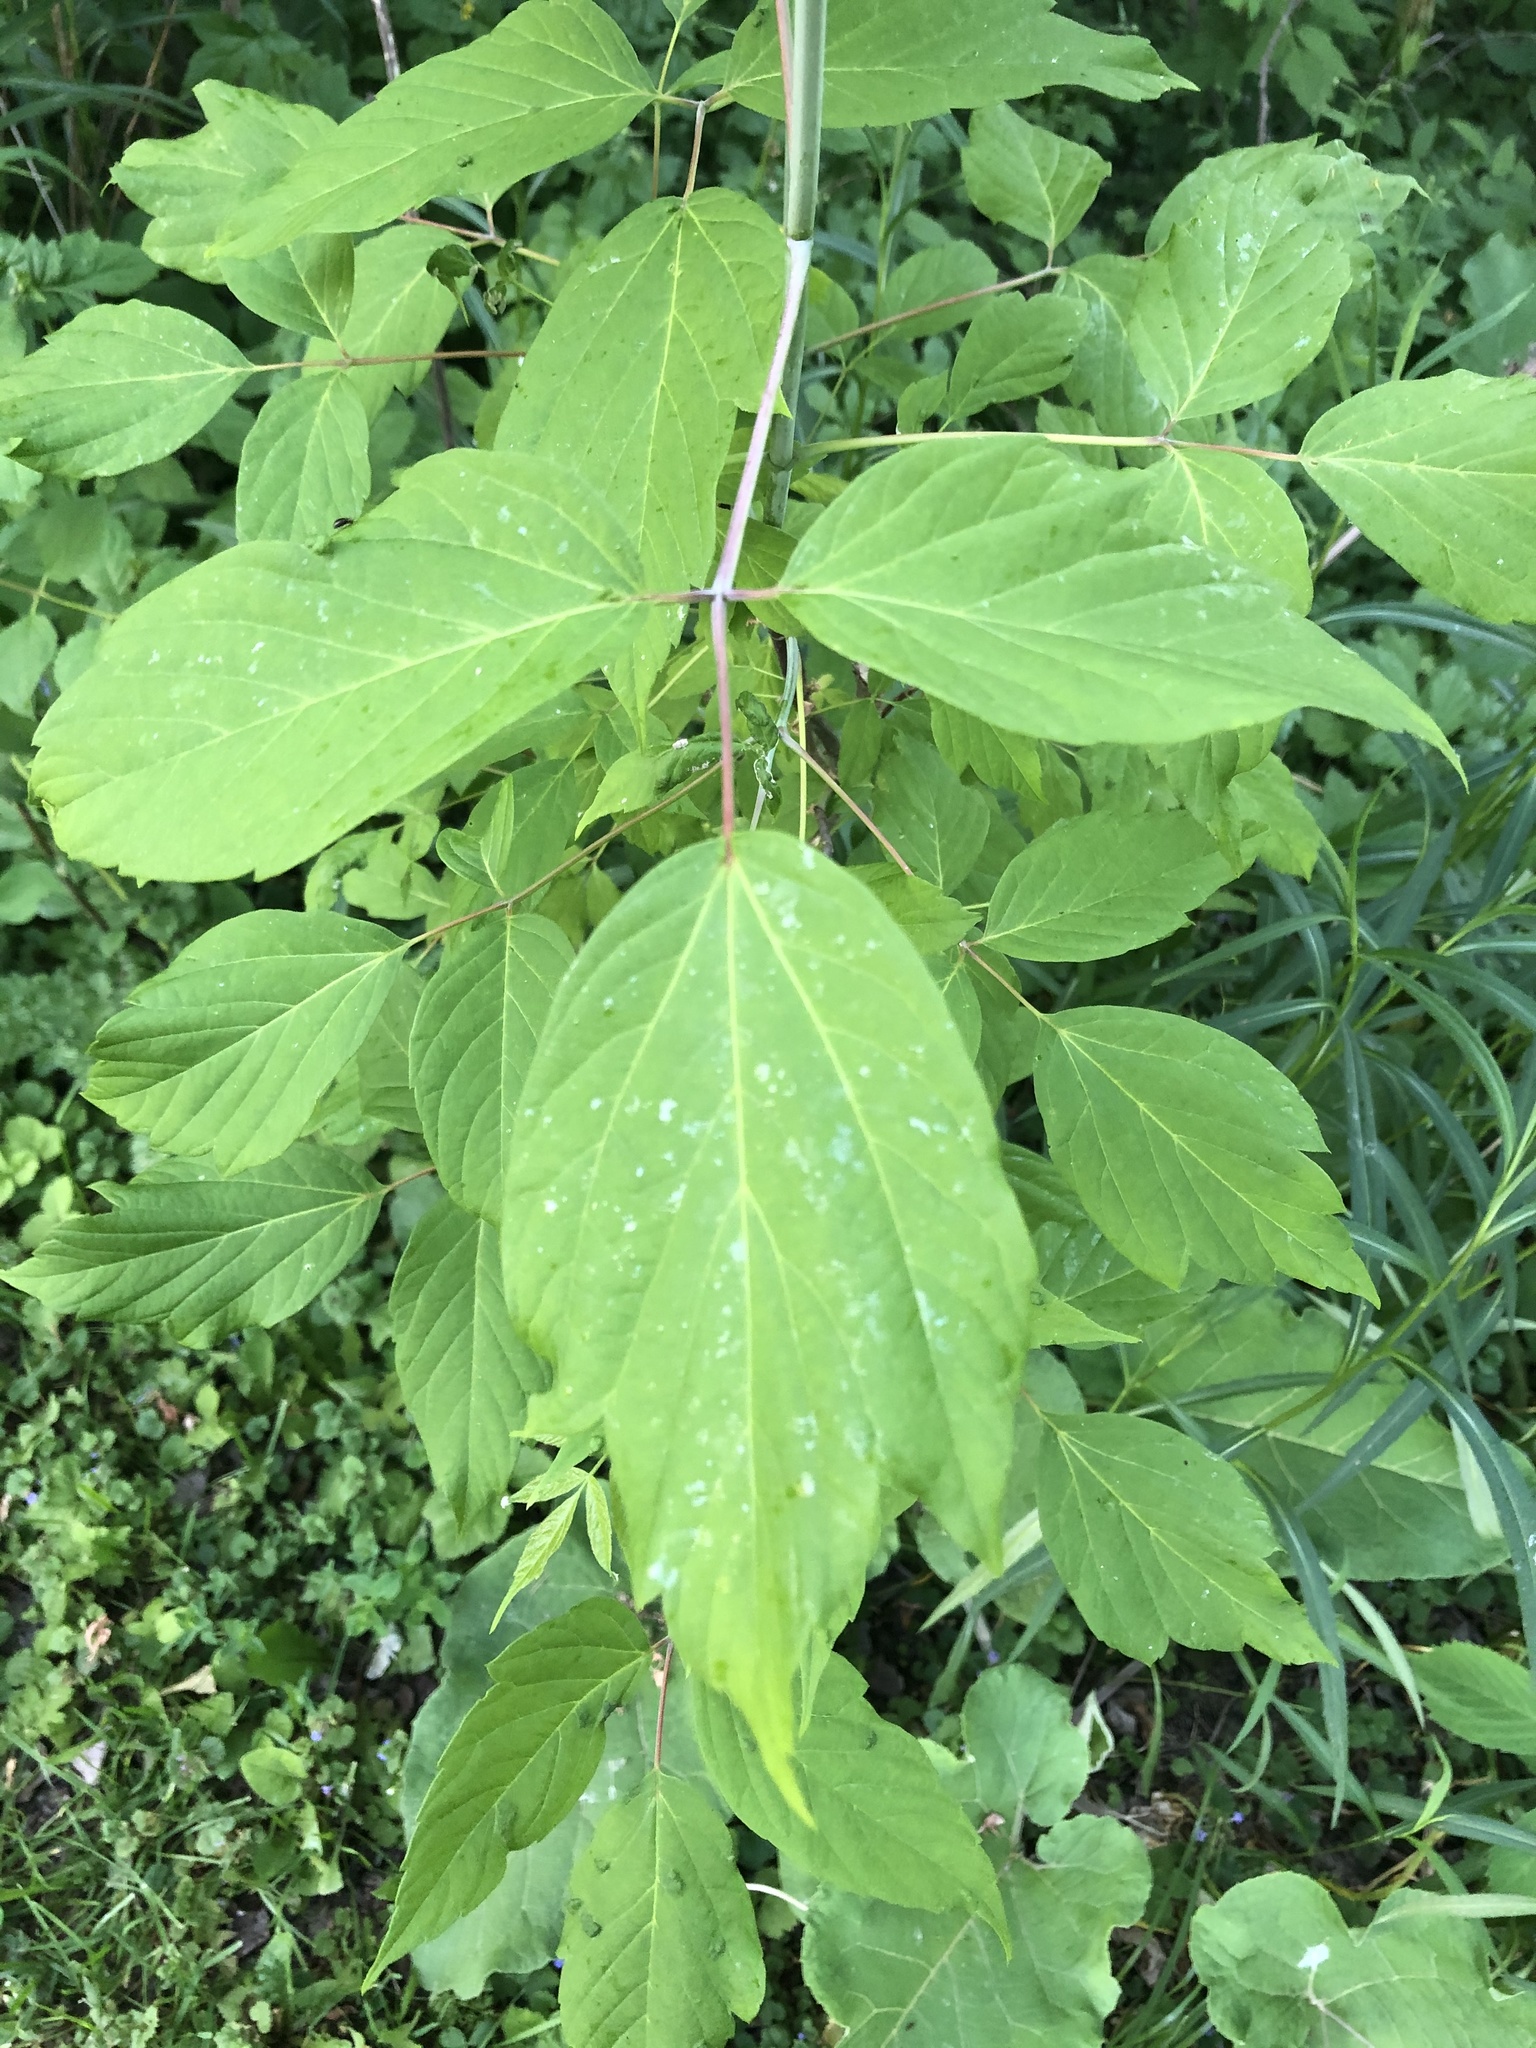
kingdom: Plantae
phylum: Tracheophyta
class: Magnoliopsida
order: Sapindales
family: Sapindaceae
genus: Acer
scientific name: Acer negundo
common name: Ashleaf maple
